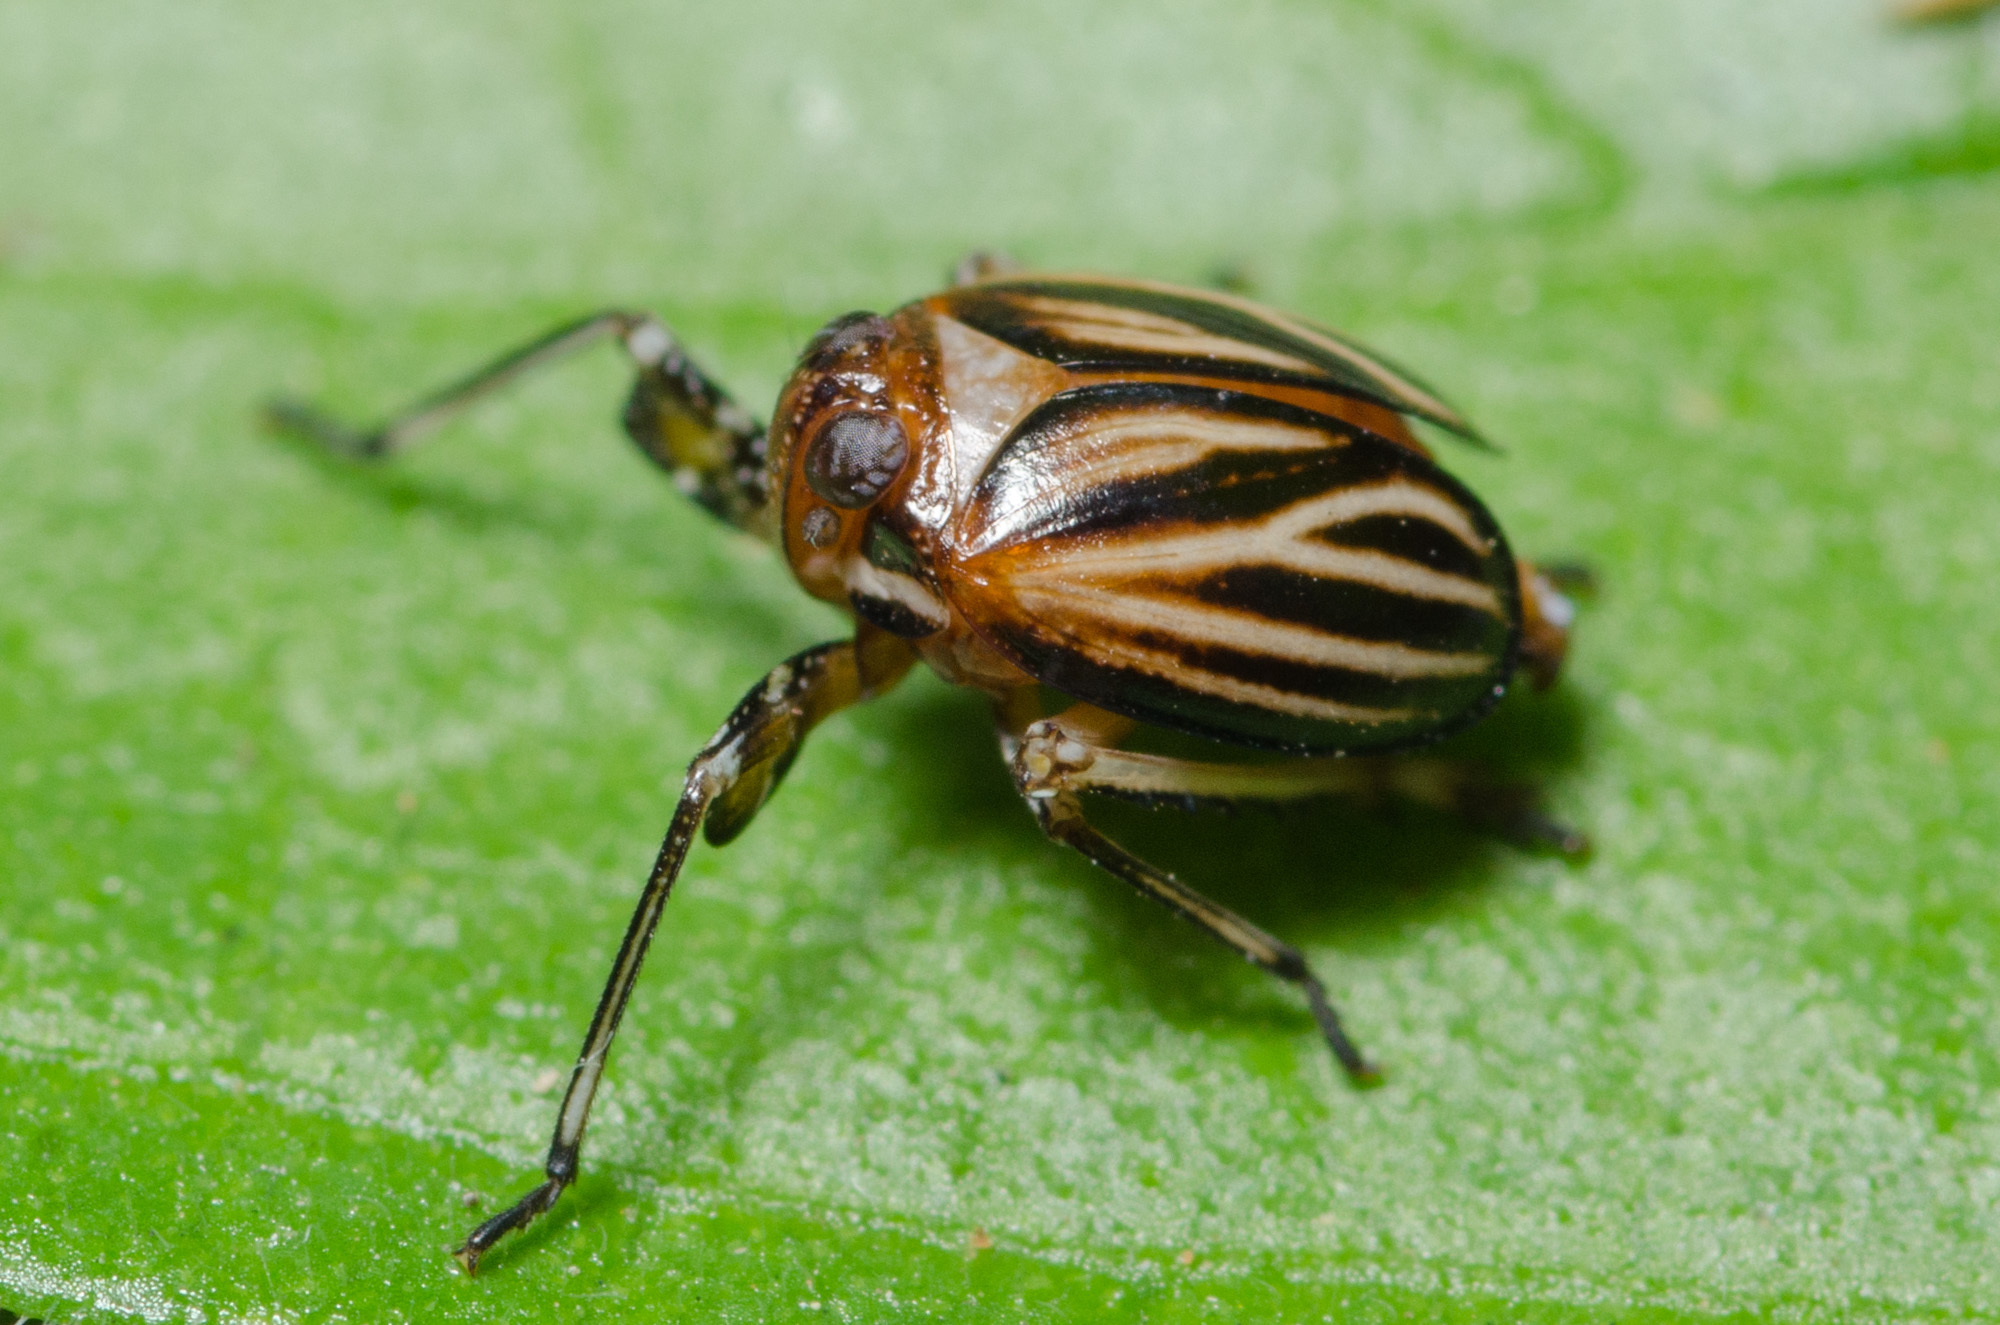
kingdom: Animalia
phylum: Arthropoda
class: Insecta
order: Hemiptera
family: Achilidae
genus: Isodaemon
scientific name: Isodaemon orontes
